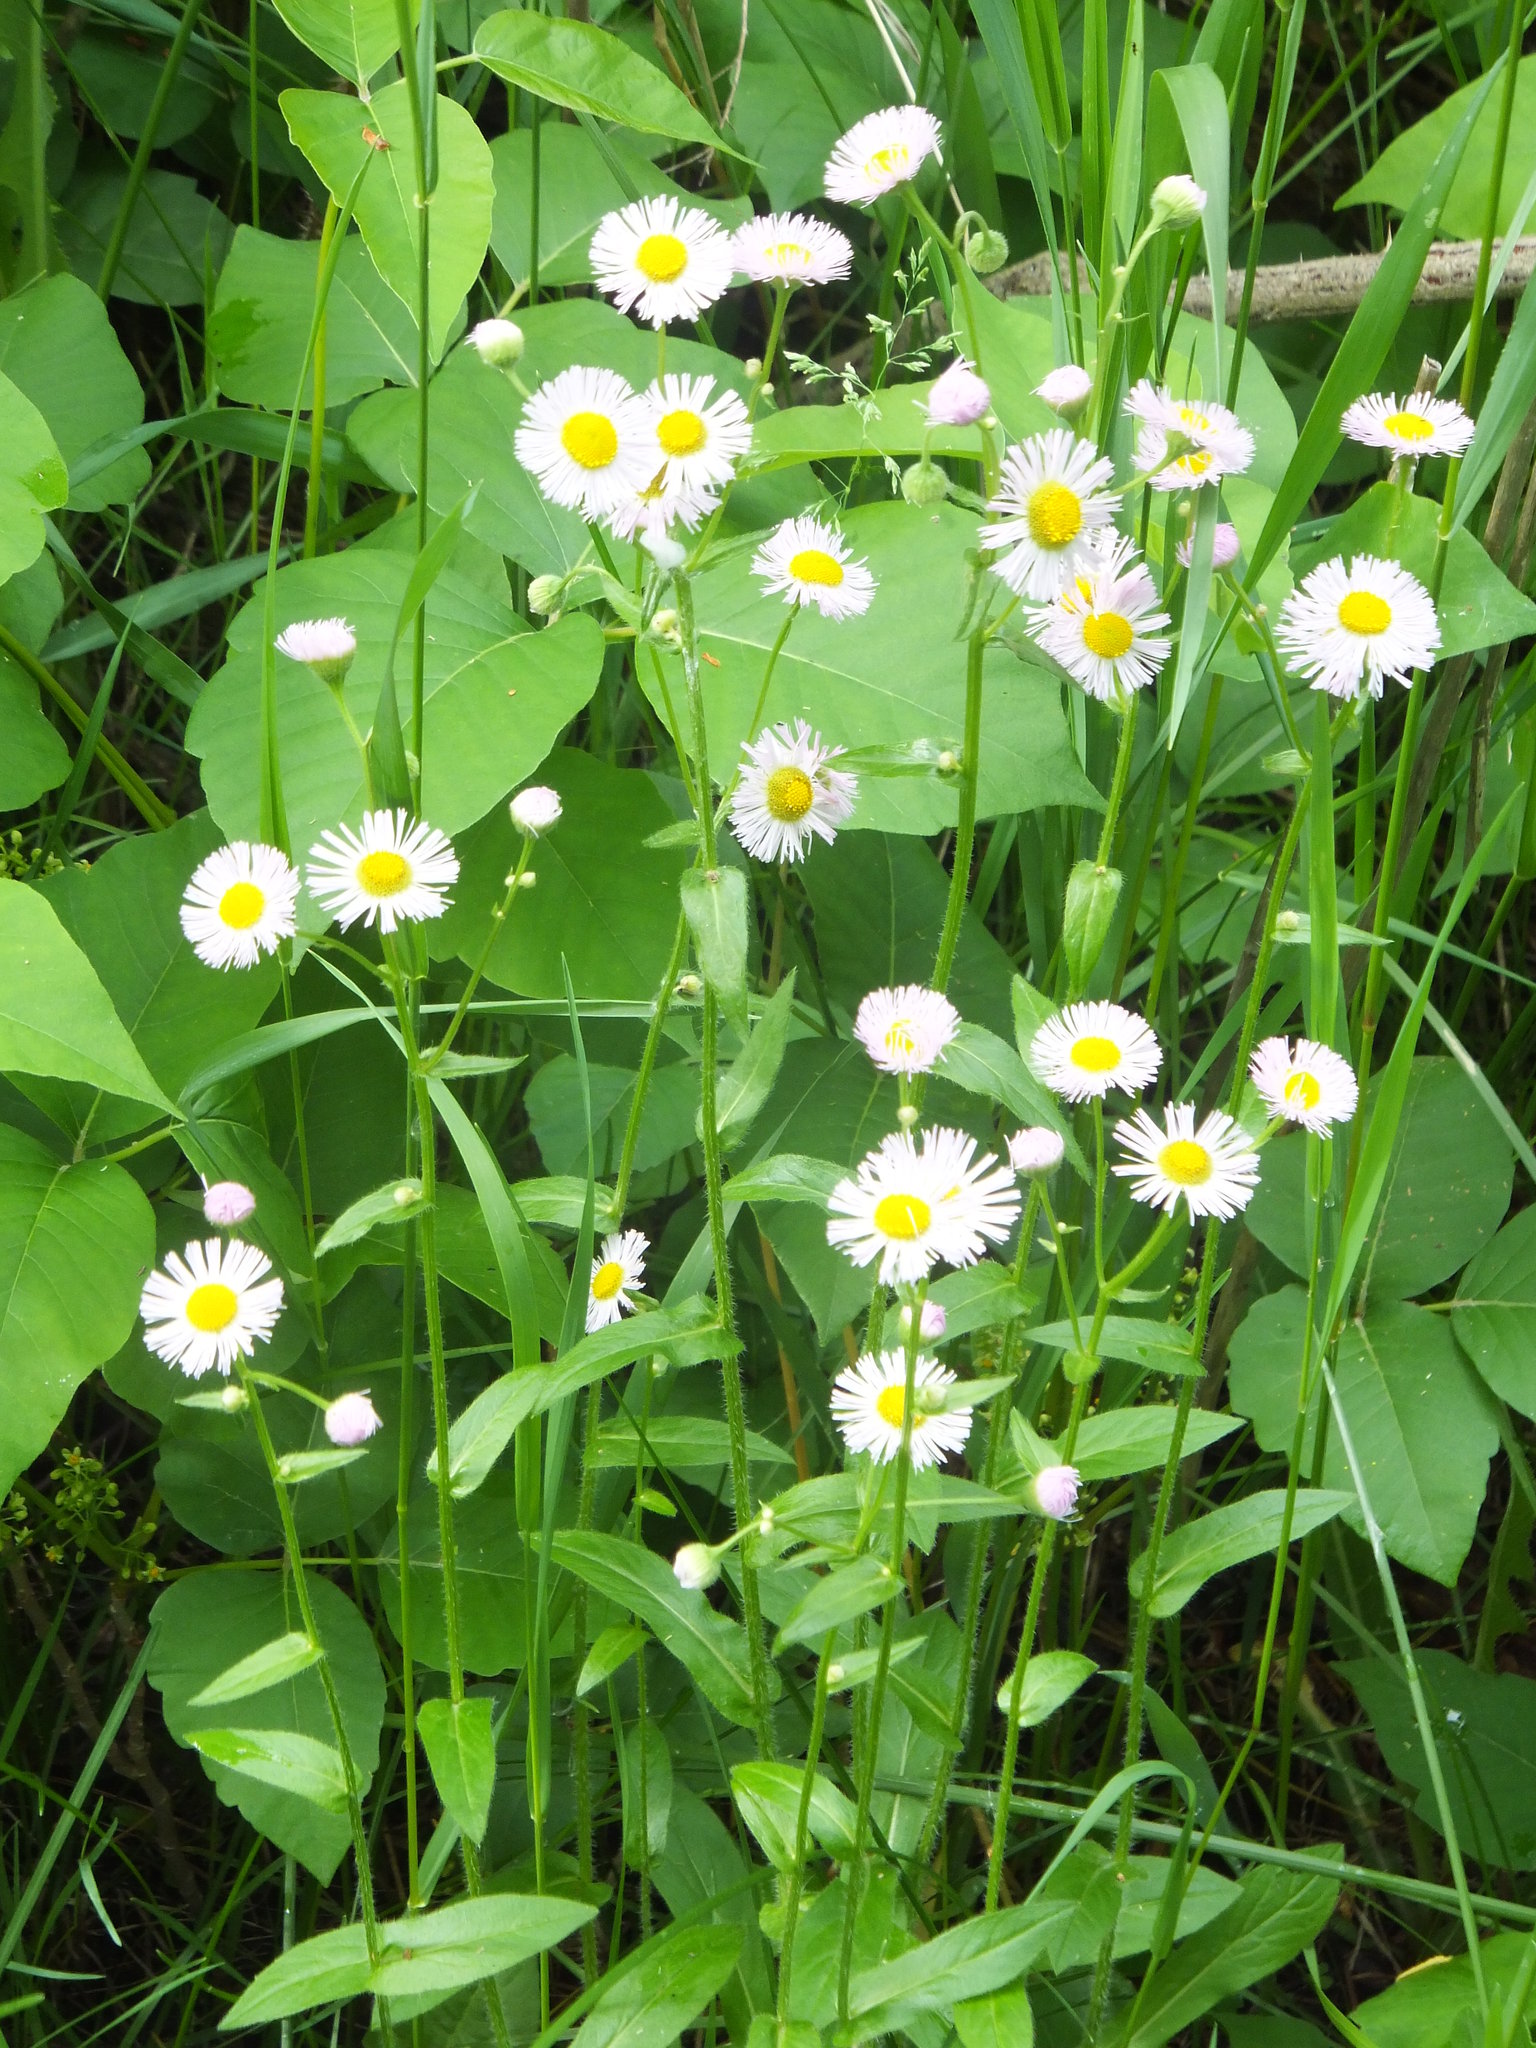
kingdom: Plantae
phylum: Tracheophyta
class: Magnoliopsida
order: Asterales
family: Asteraceae
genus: Erigeron
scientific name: Erigeron philadelphicus
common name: Robin's-plantain
